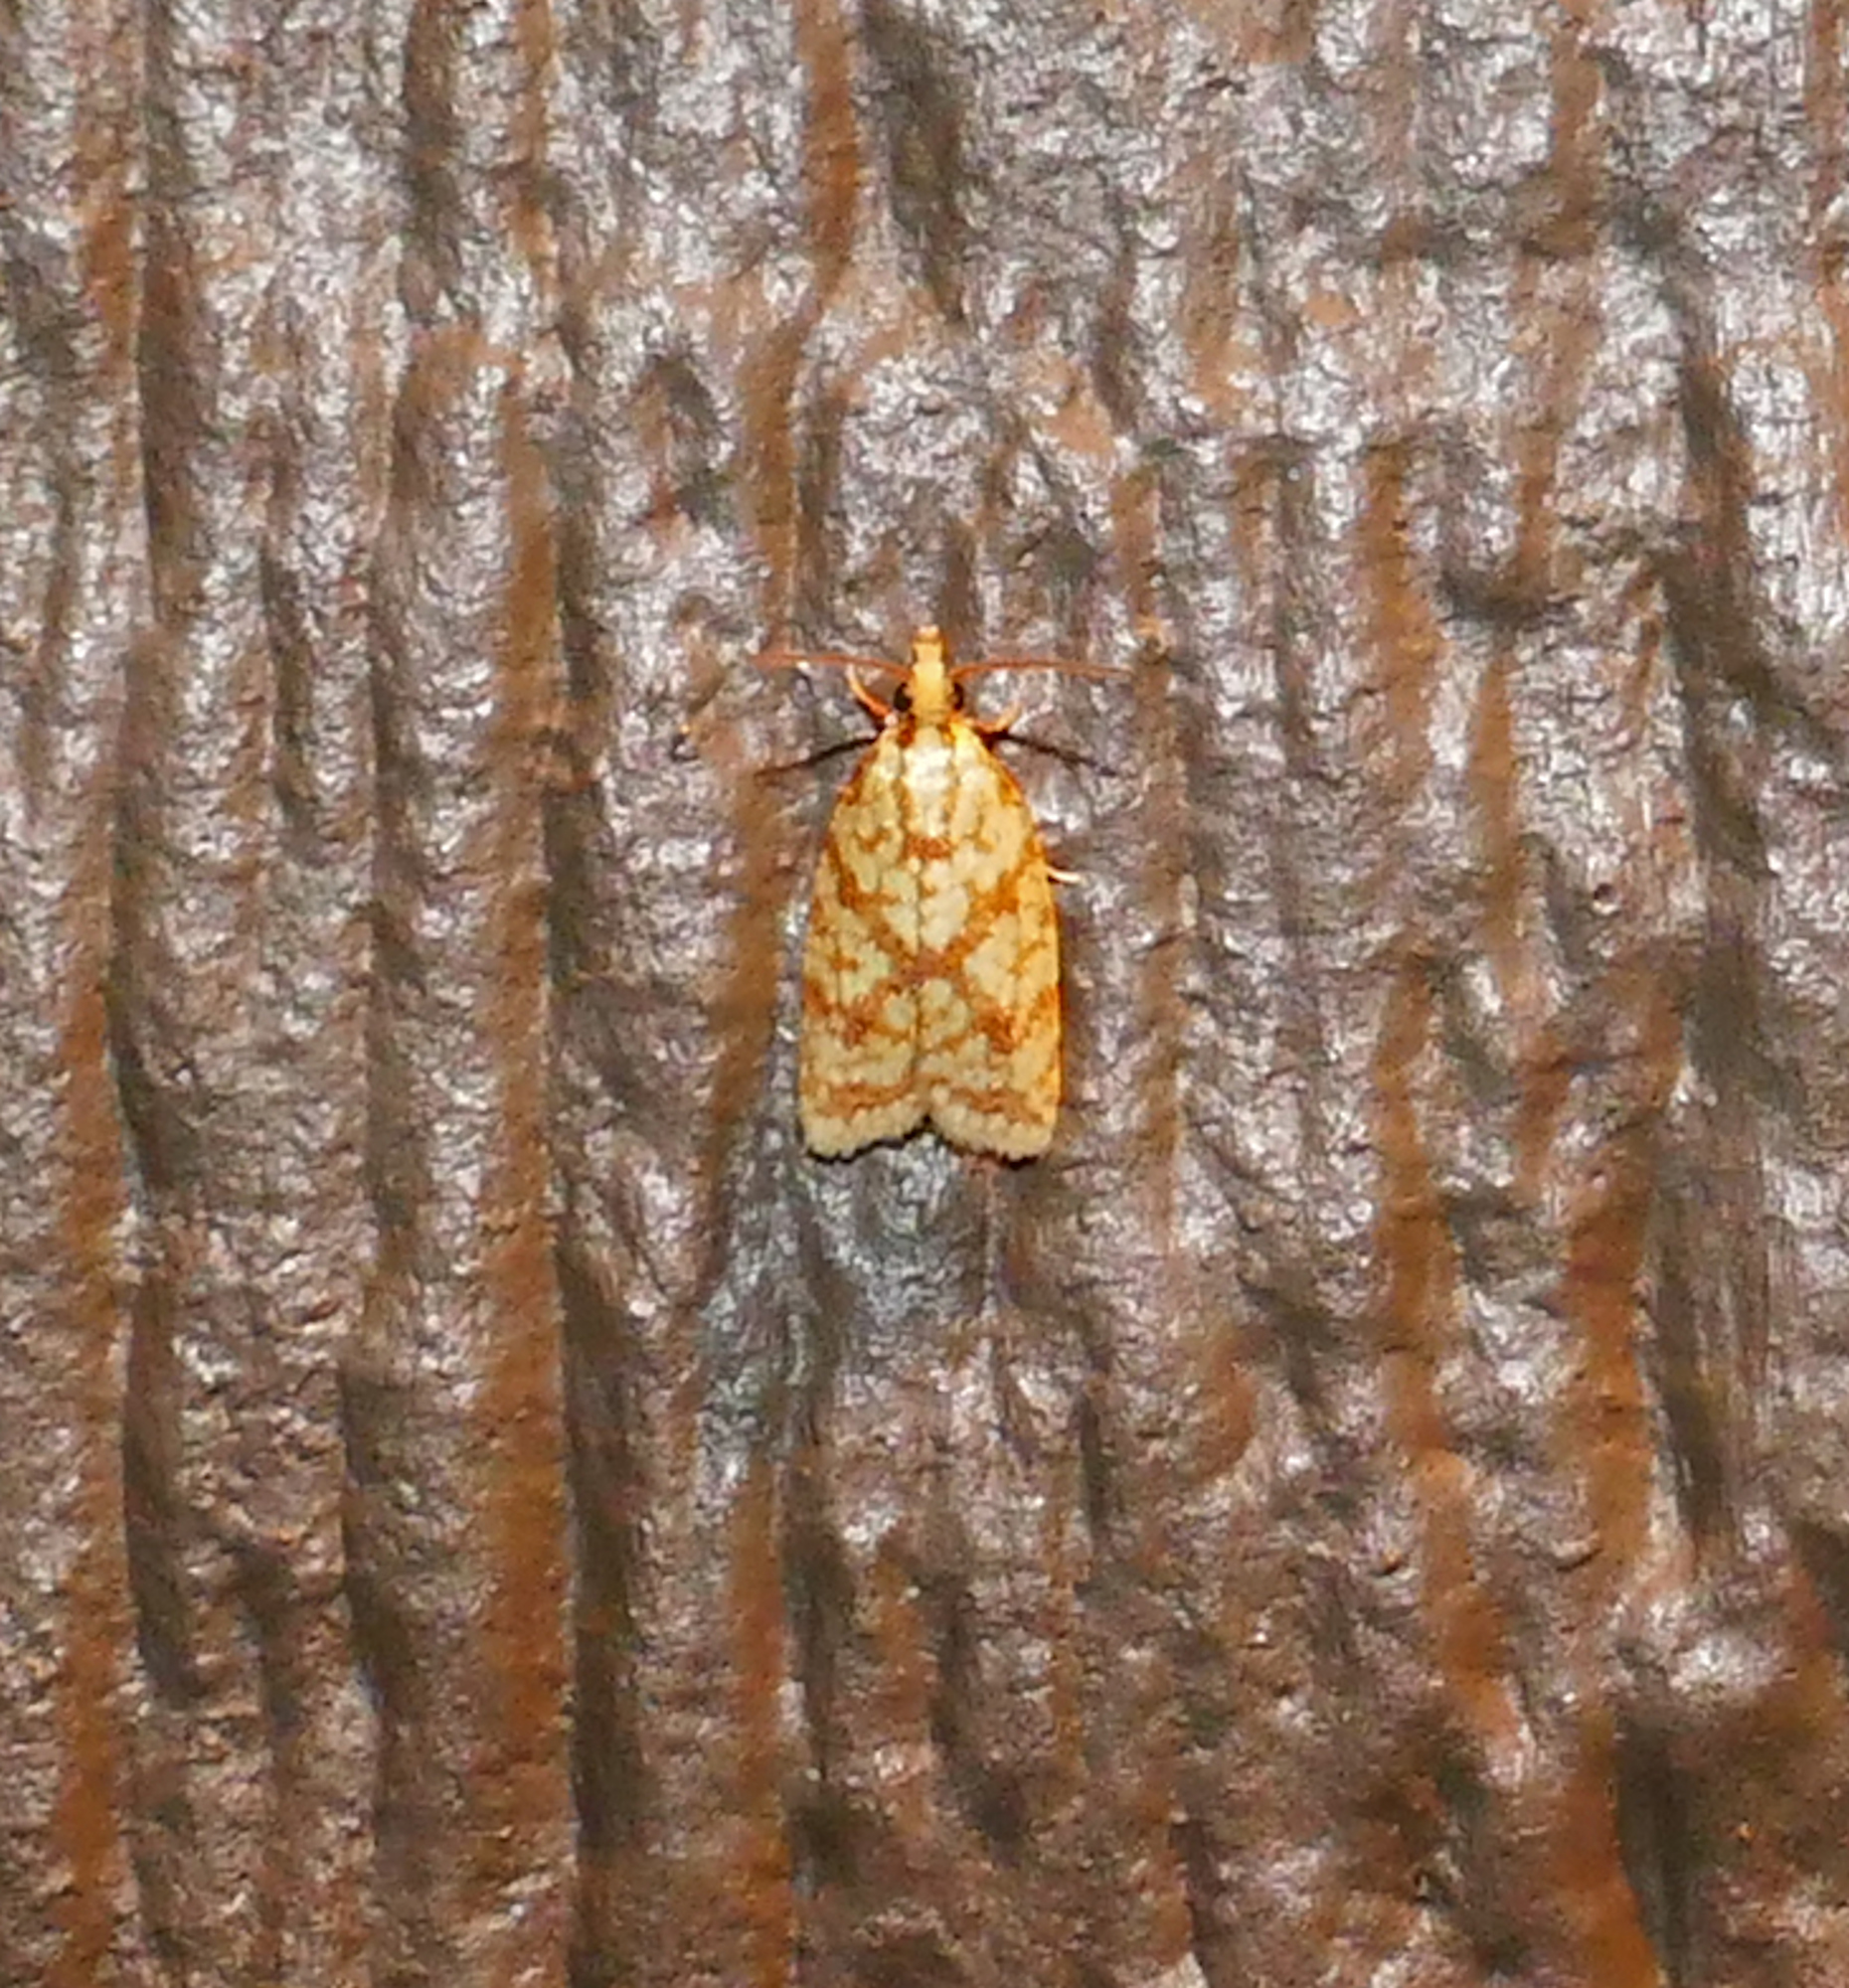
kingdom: Animalia
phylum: Arthropoda
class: Insecta
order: Lepidoptera
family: Tortricidae
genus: Sparganothis
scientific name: Sparganothis sulfureana
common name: Sparganothis fruitworm moth
